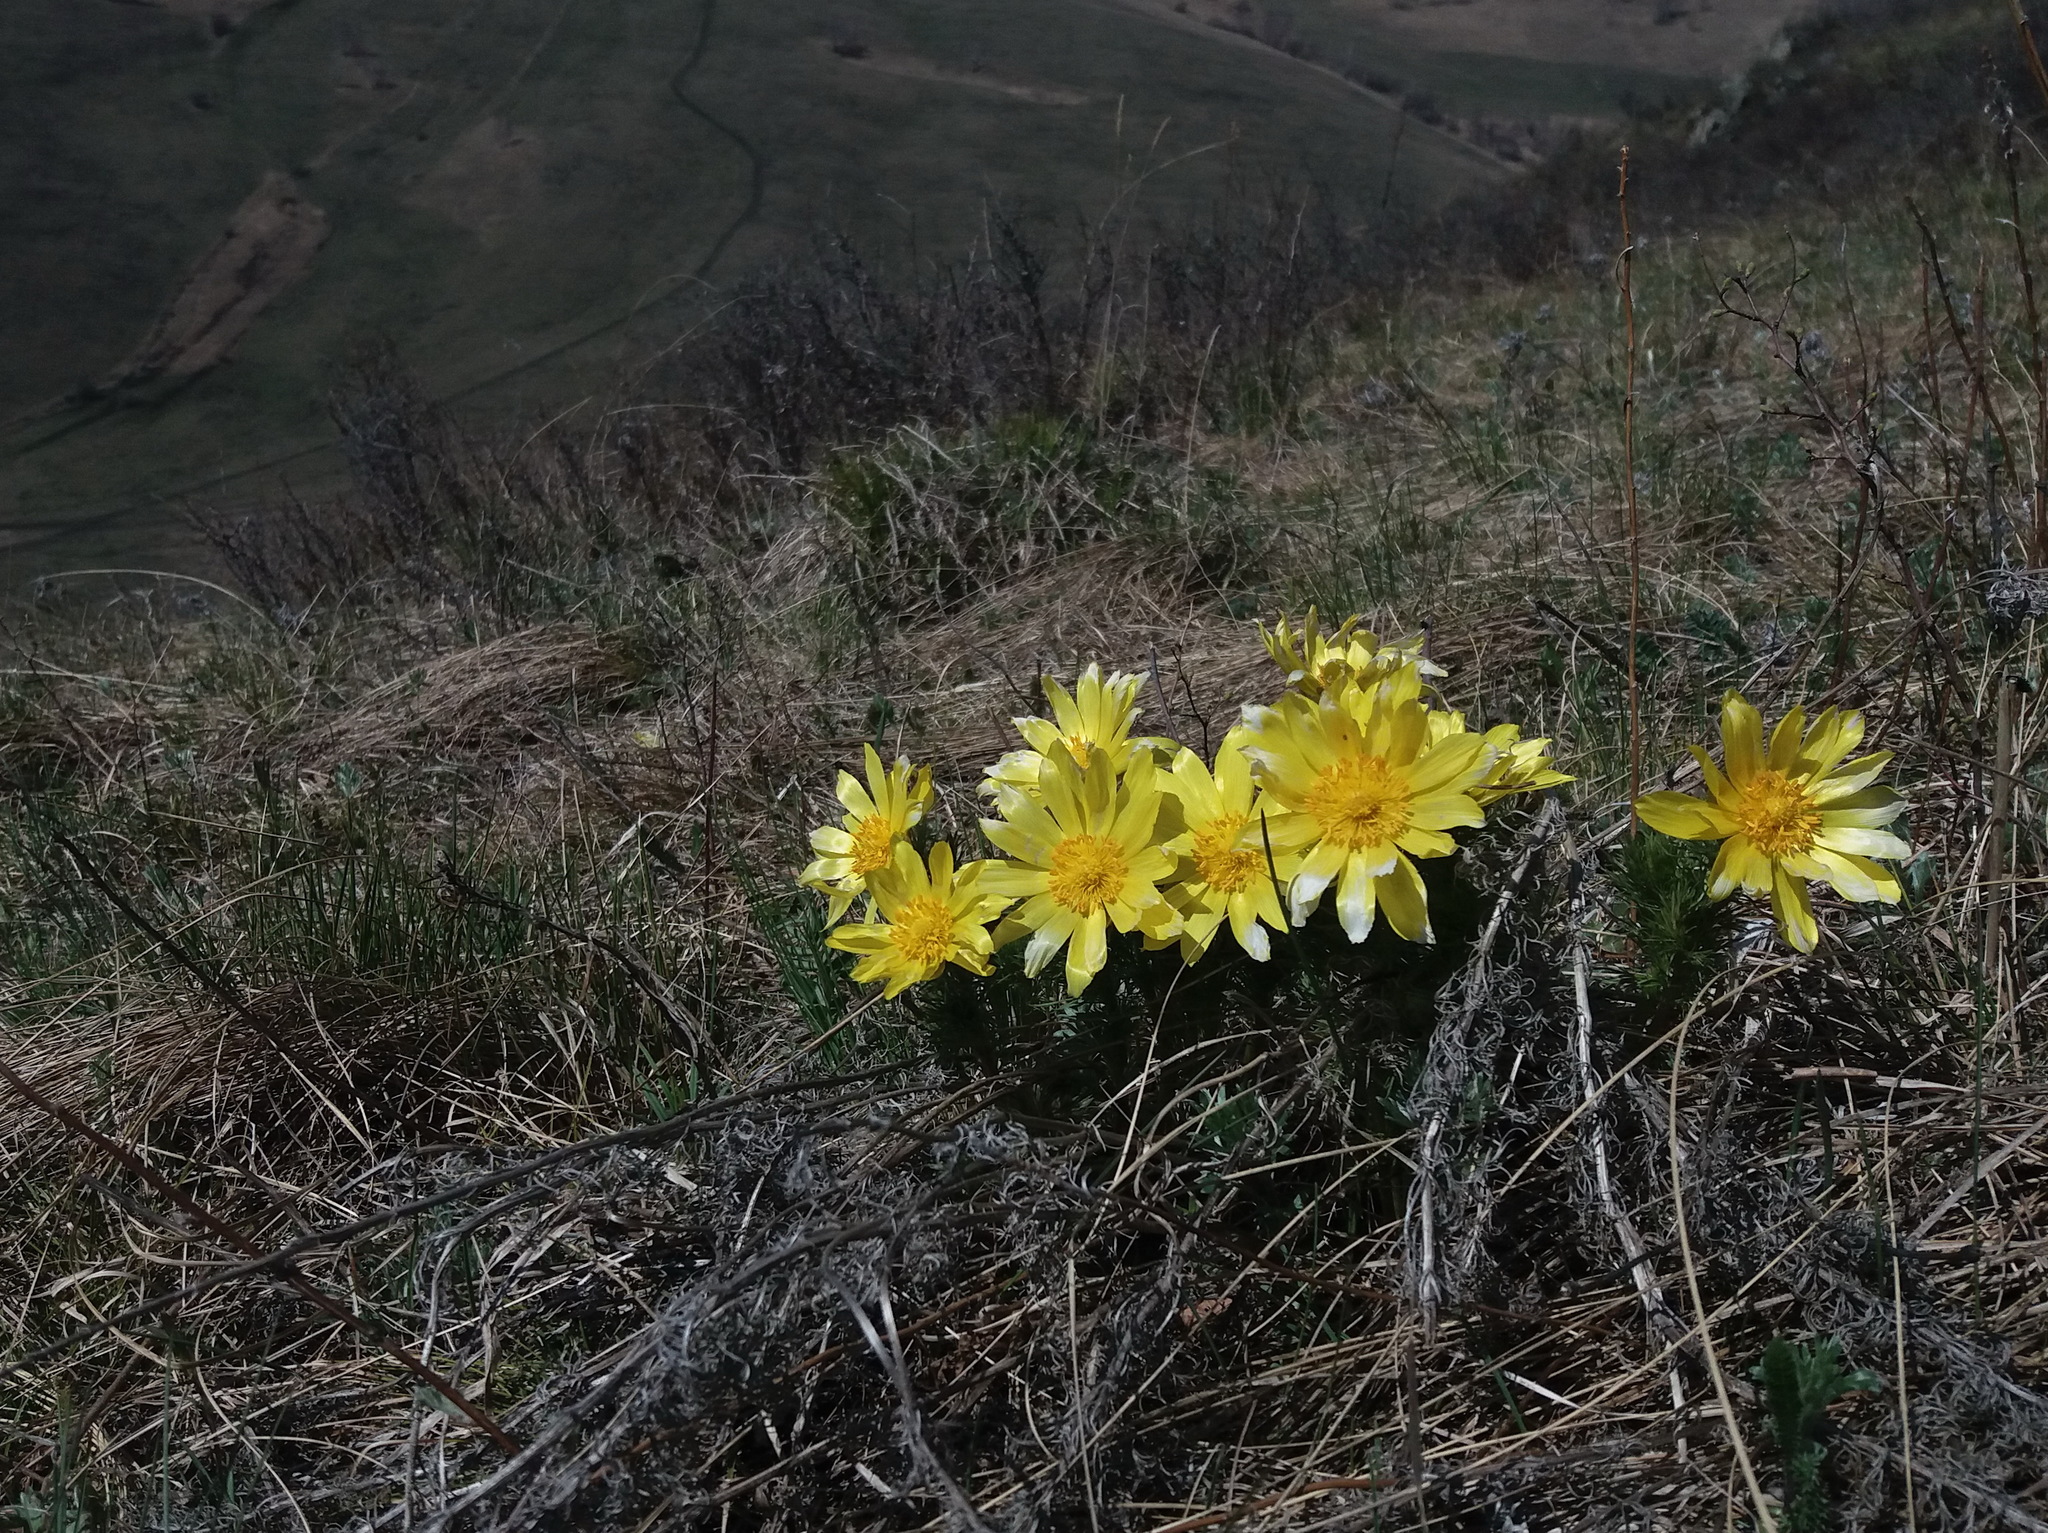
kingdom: Plantae
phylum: Tracheophyta
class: Magnoliopsida
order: Ranunculales
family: Ranunculaceae
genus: Adonis
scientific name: Adonis vernalis
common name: Yellow pheasants-eye
